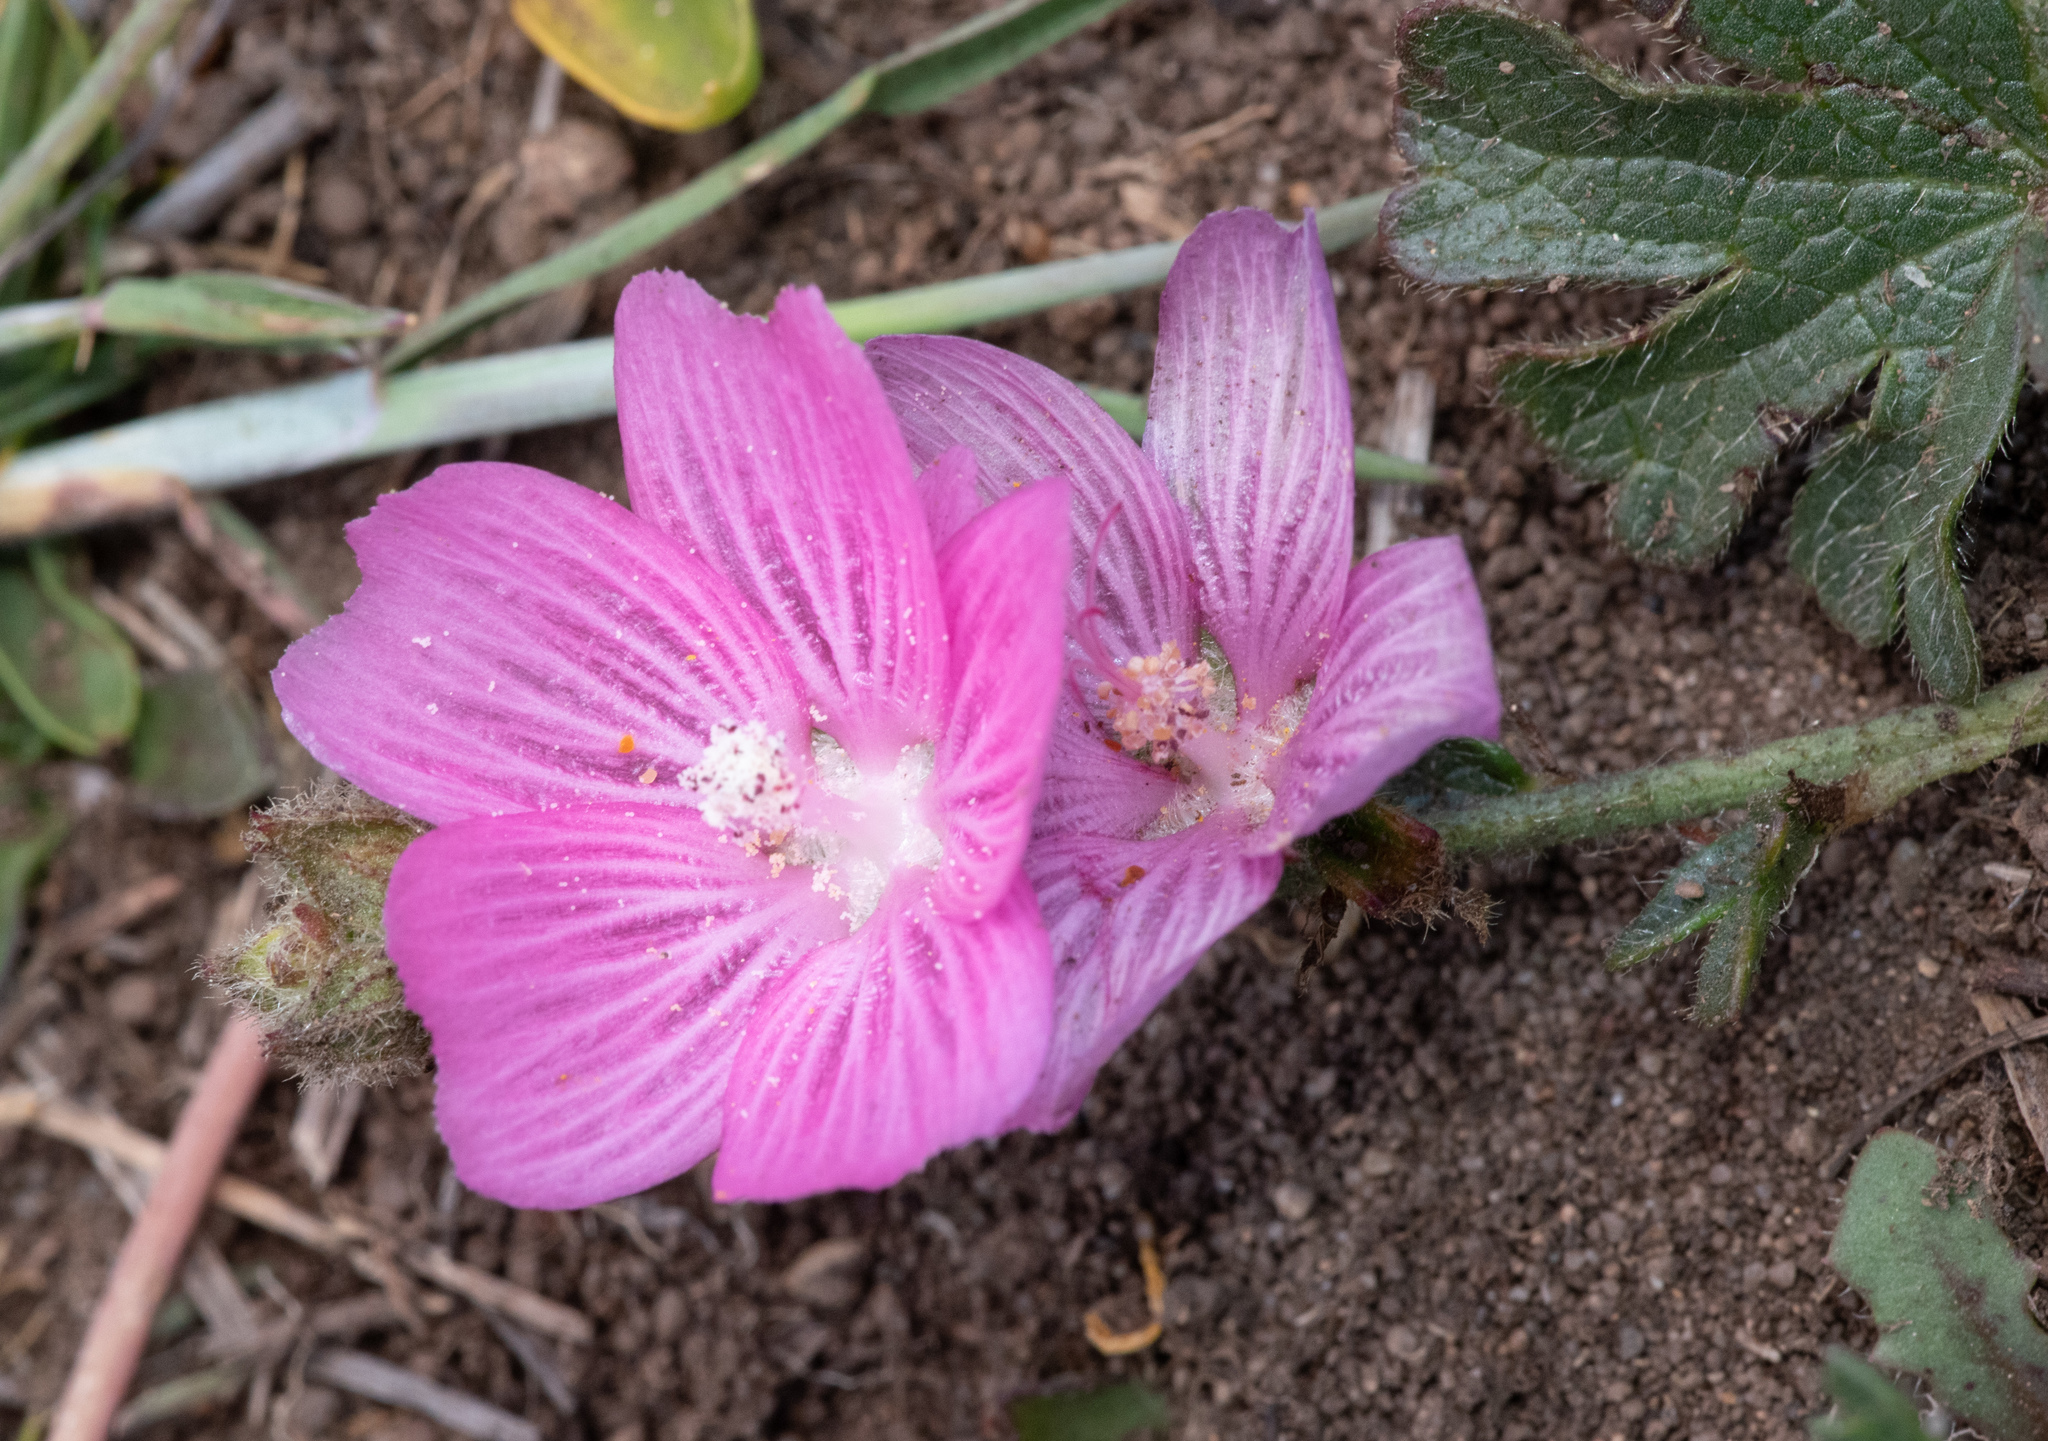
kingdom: Plantae
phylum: Tracheophyta
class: Magnoliopsida
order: Malvales
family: Malvaceae
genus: Sidalcea
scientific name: Sidalcea malviflora
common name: Greek mallow
